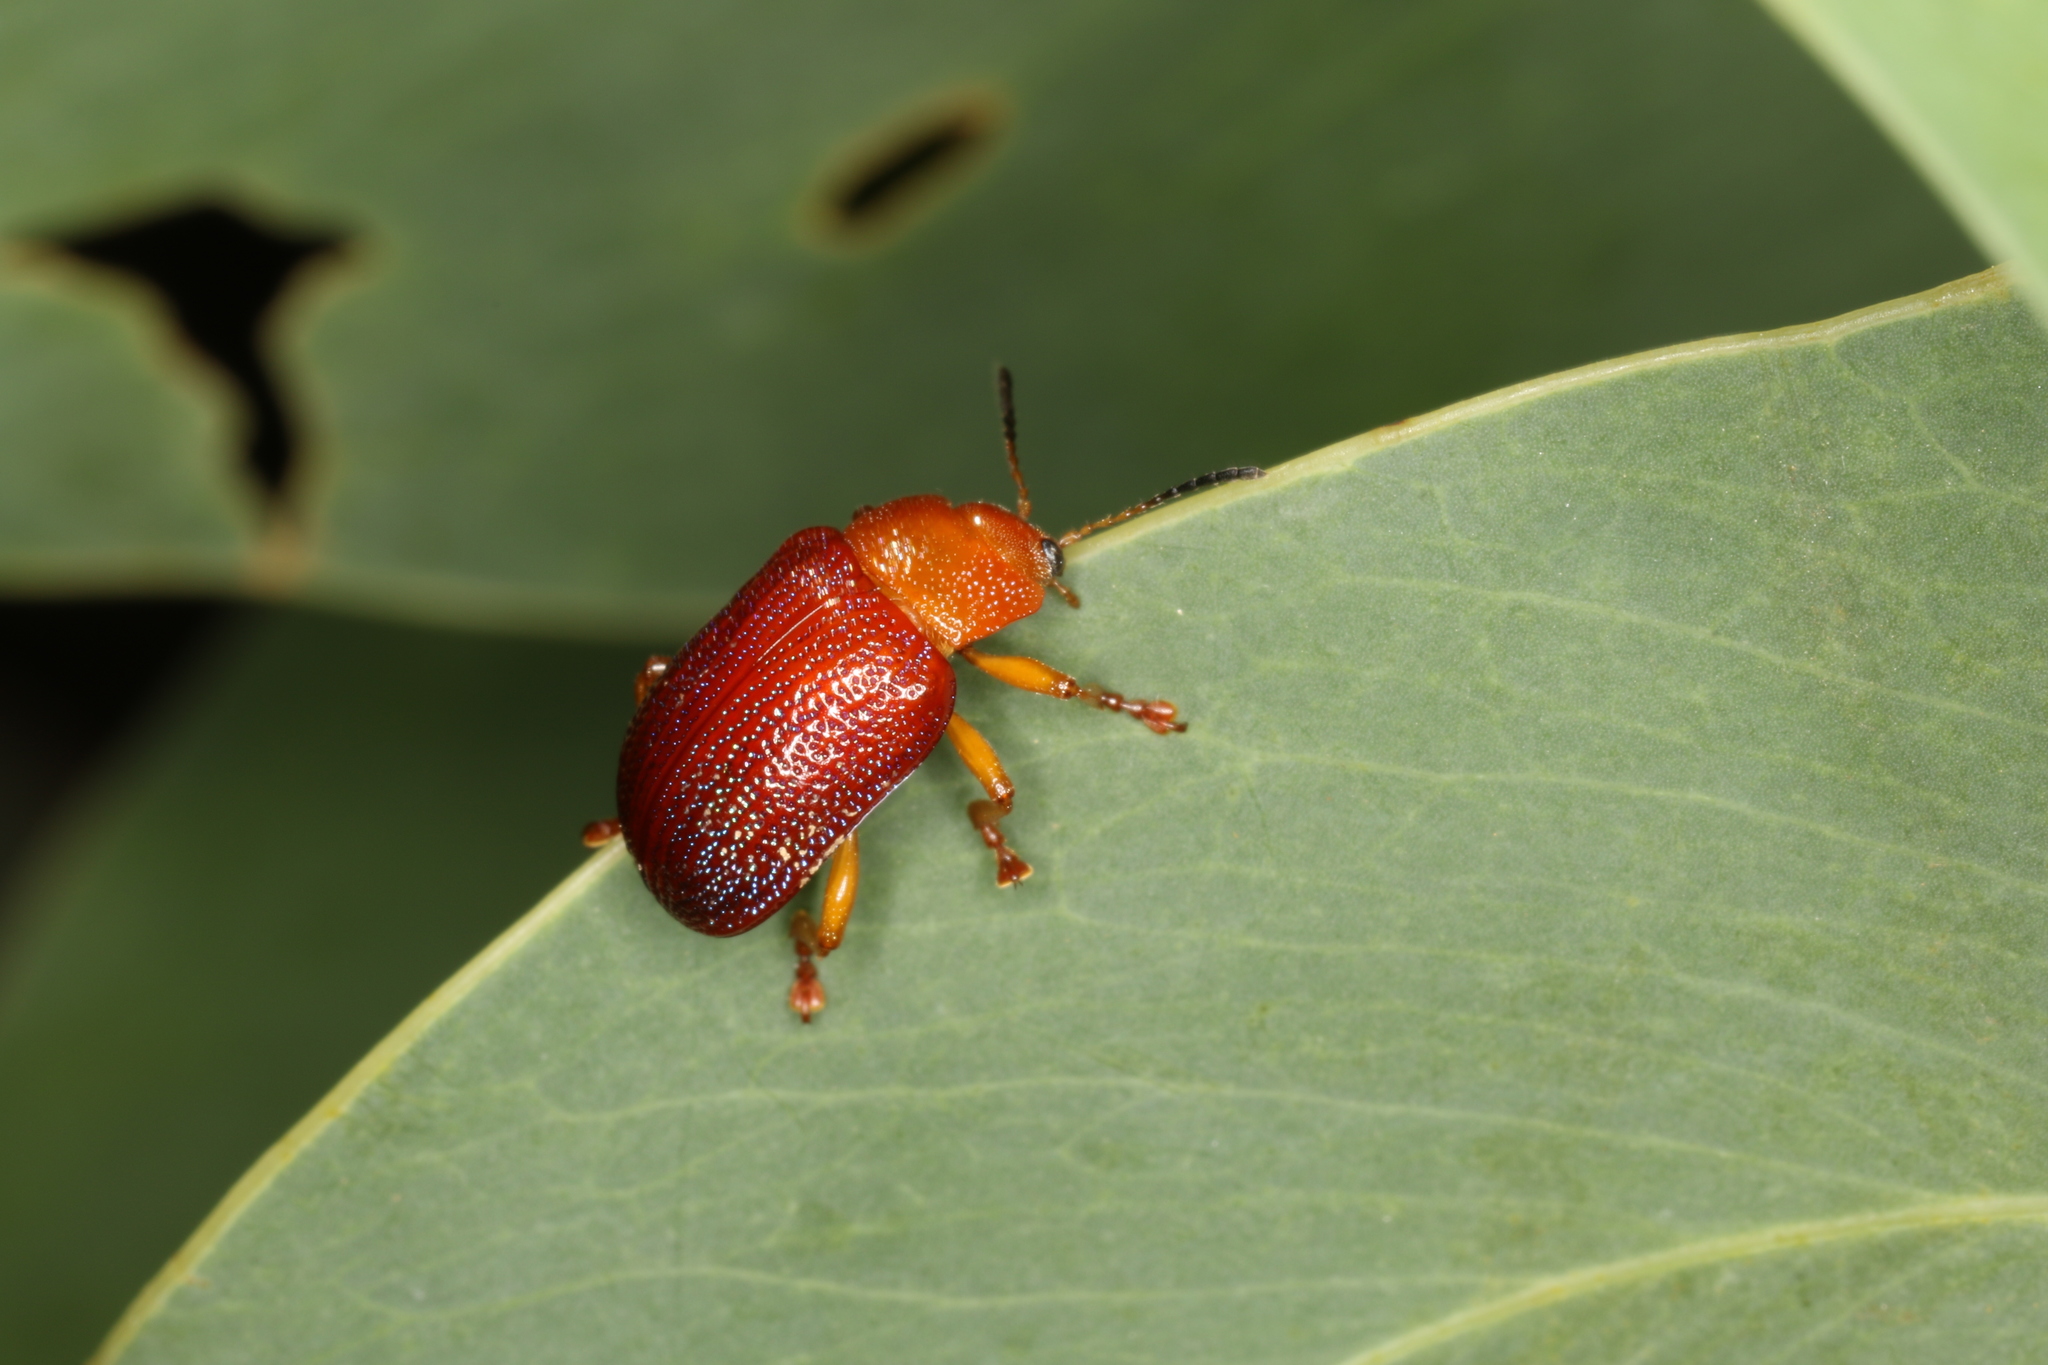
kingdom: Animalia
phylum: Arthropoda
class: Insecta
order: Coleoptera
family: Chrysomelidae
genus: Calomela
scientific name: Calomela
